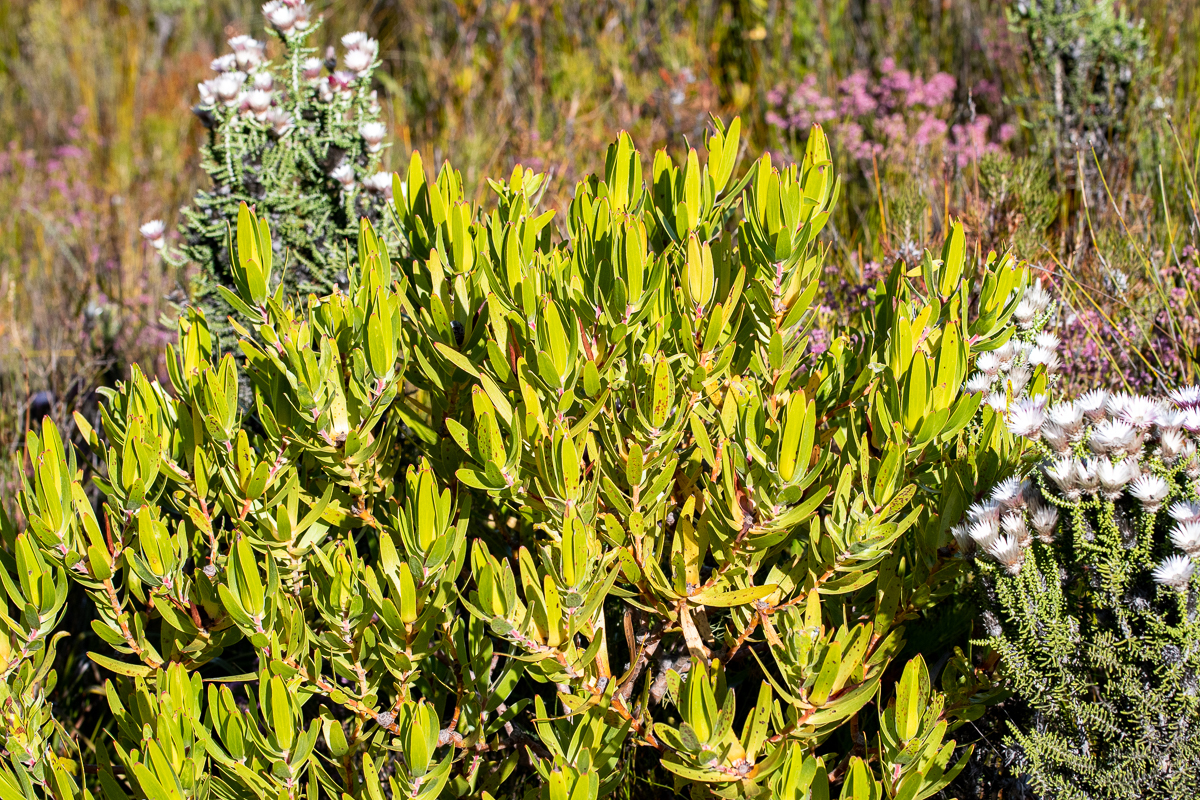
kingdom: Plantae
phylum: Tracheophyta
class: Magnoliopsida
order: Proteales
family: Proteaceae
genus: Leucadendron
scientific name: Leucadendron laureolum
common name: Golden sunshinebush
